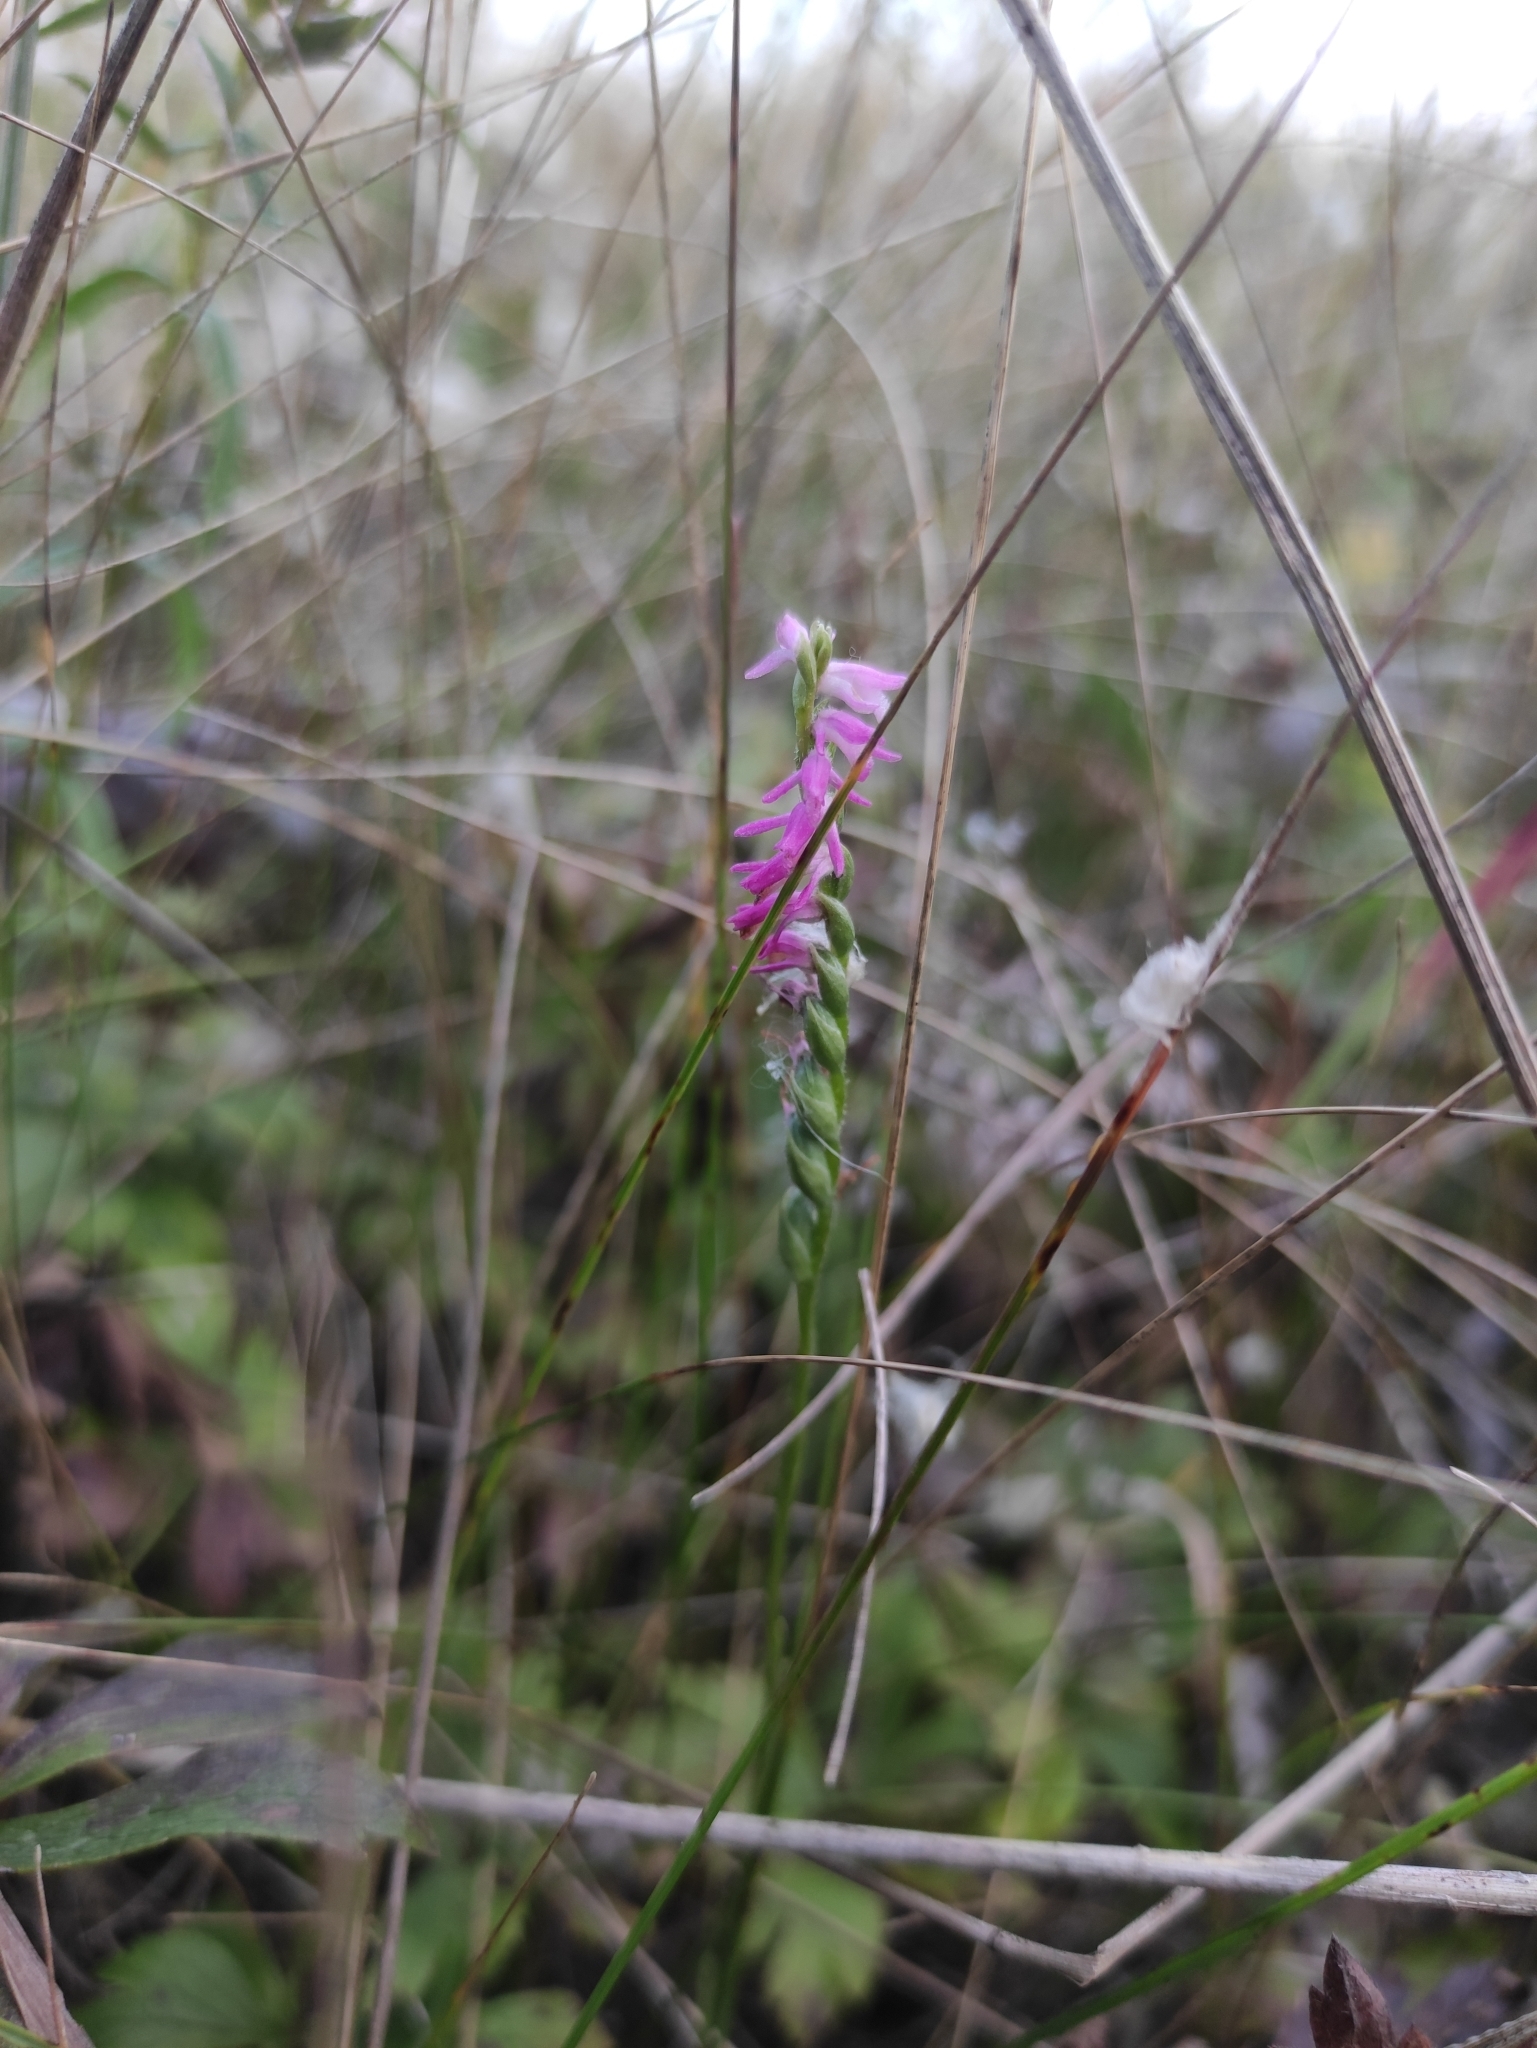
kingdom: Plantae
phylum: Tracheophyta
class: Liliopsida
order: Asparagales
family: Orchidaceae
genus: Spiranthes
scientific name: Spiranthes australis
